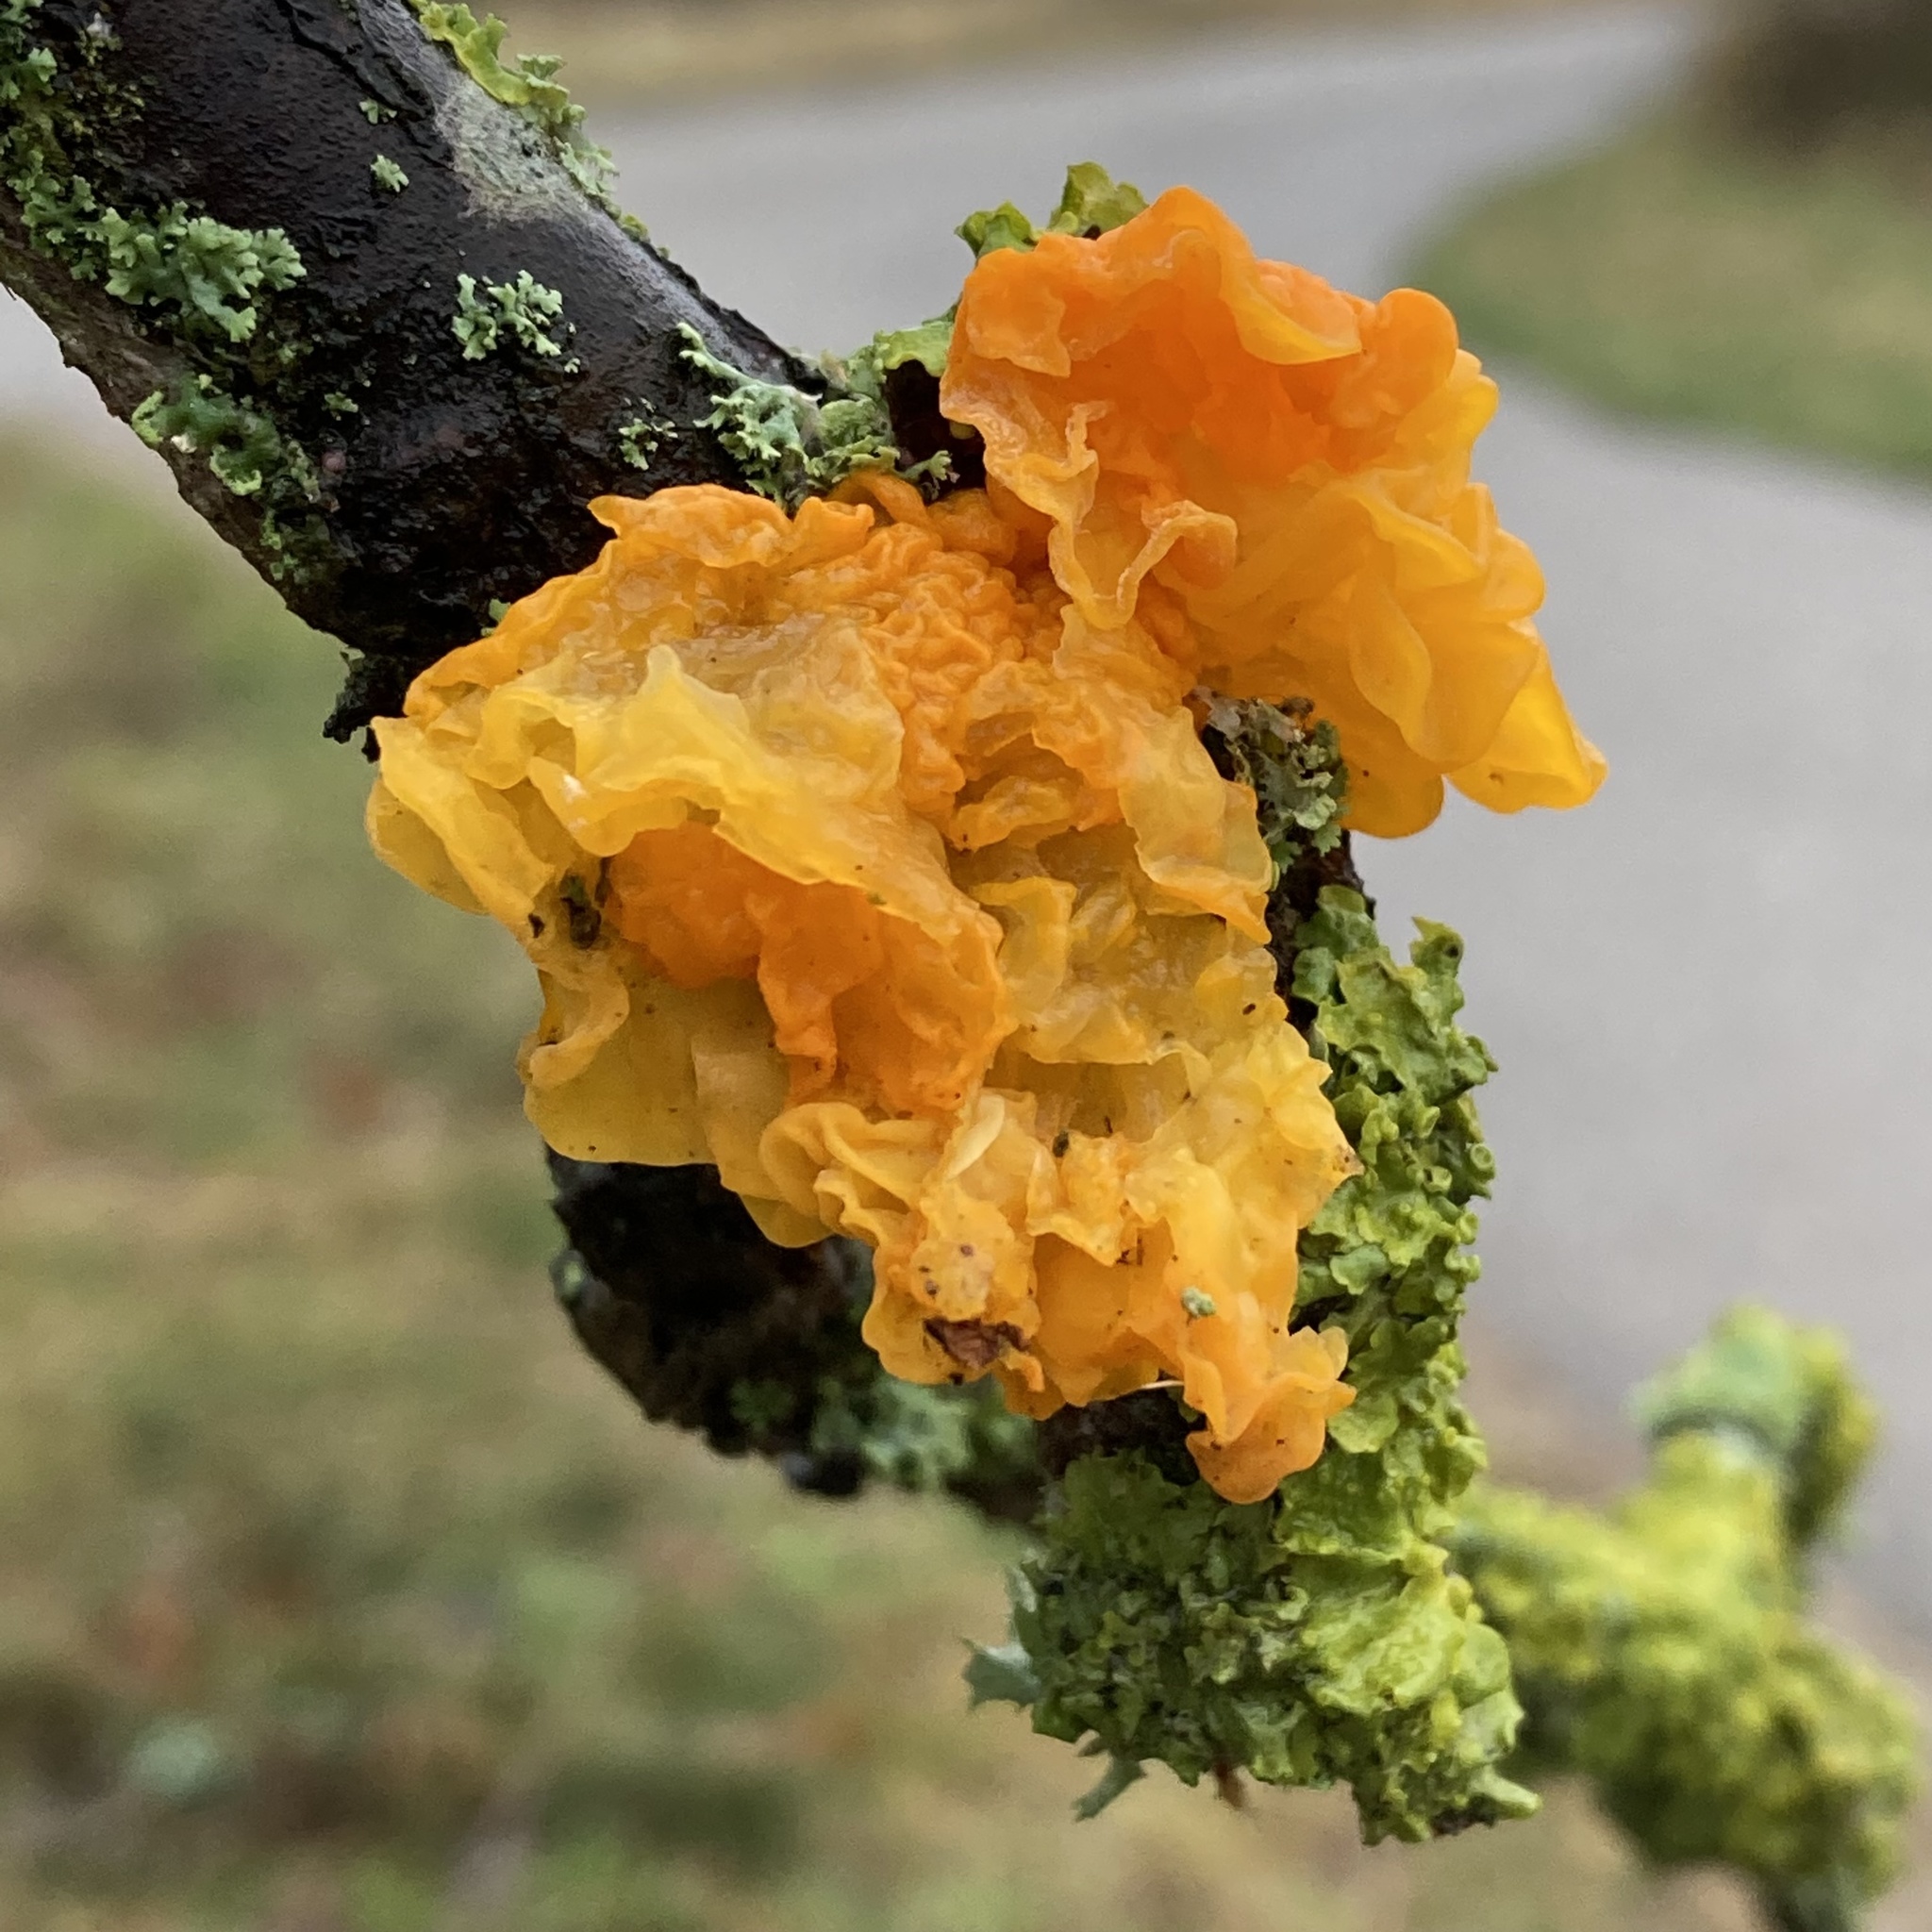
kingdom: Fungi
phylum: Basidiomycota
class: Tremellomycetes
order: Tremellales
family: Tremellaceae
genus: Tremella
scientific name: Tremella mesenterica
